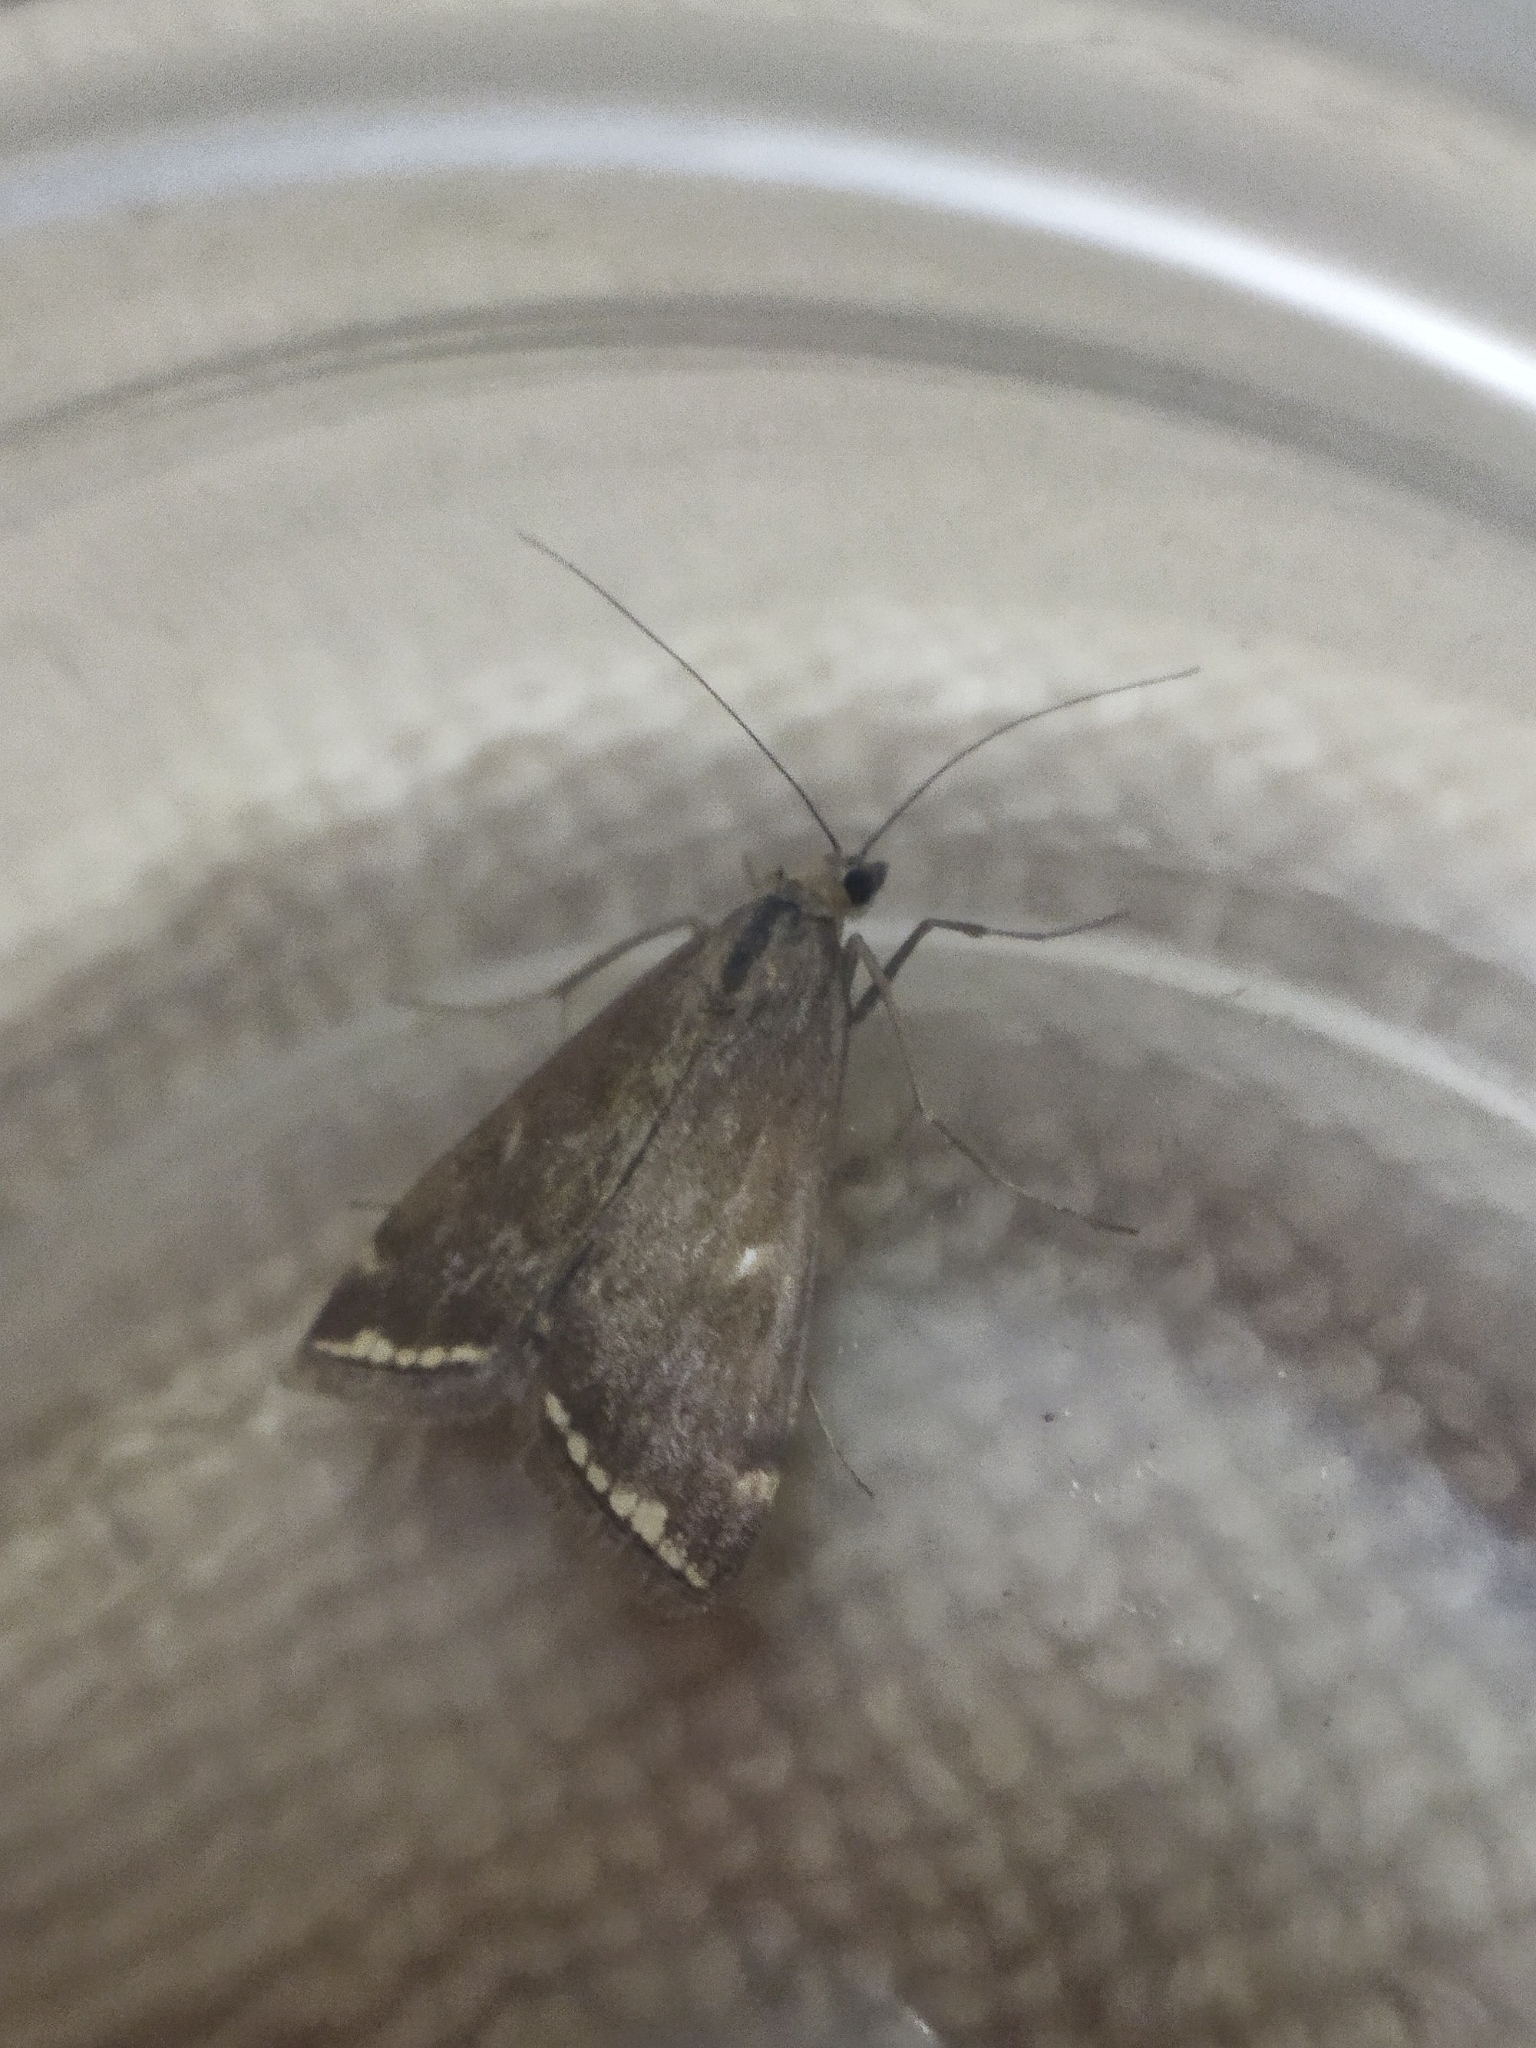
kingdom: Animalia
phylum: Arthropoda
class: Insecta
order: Lepidoptera
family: Crambidae
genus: Loxostege
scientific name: Loxostege sticticalis
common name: Crambid moth
